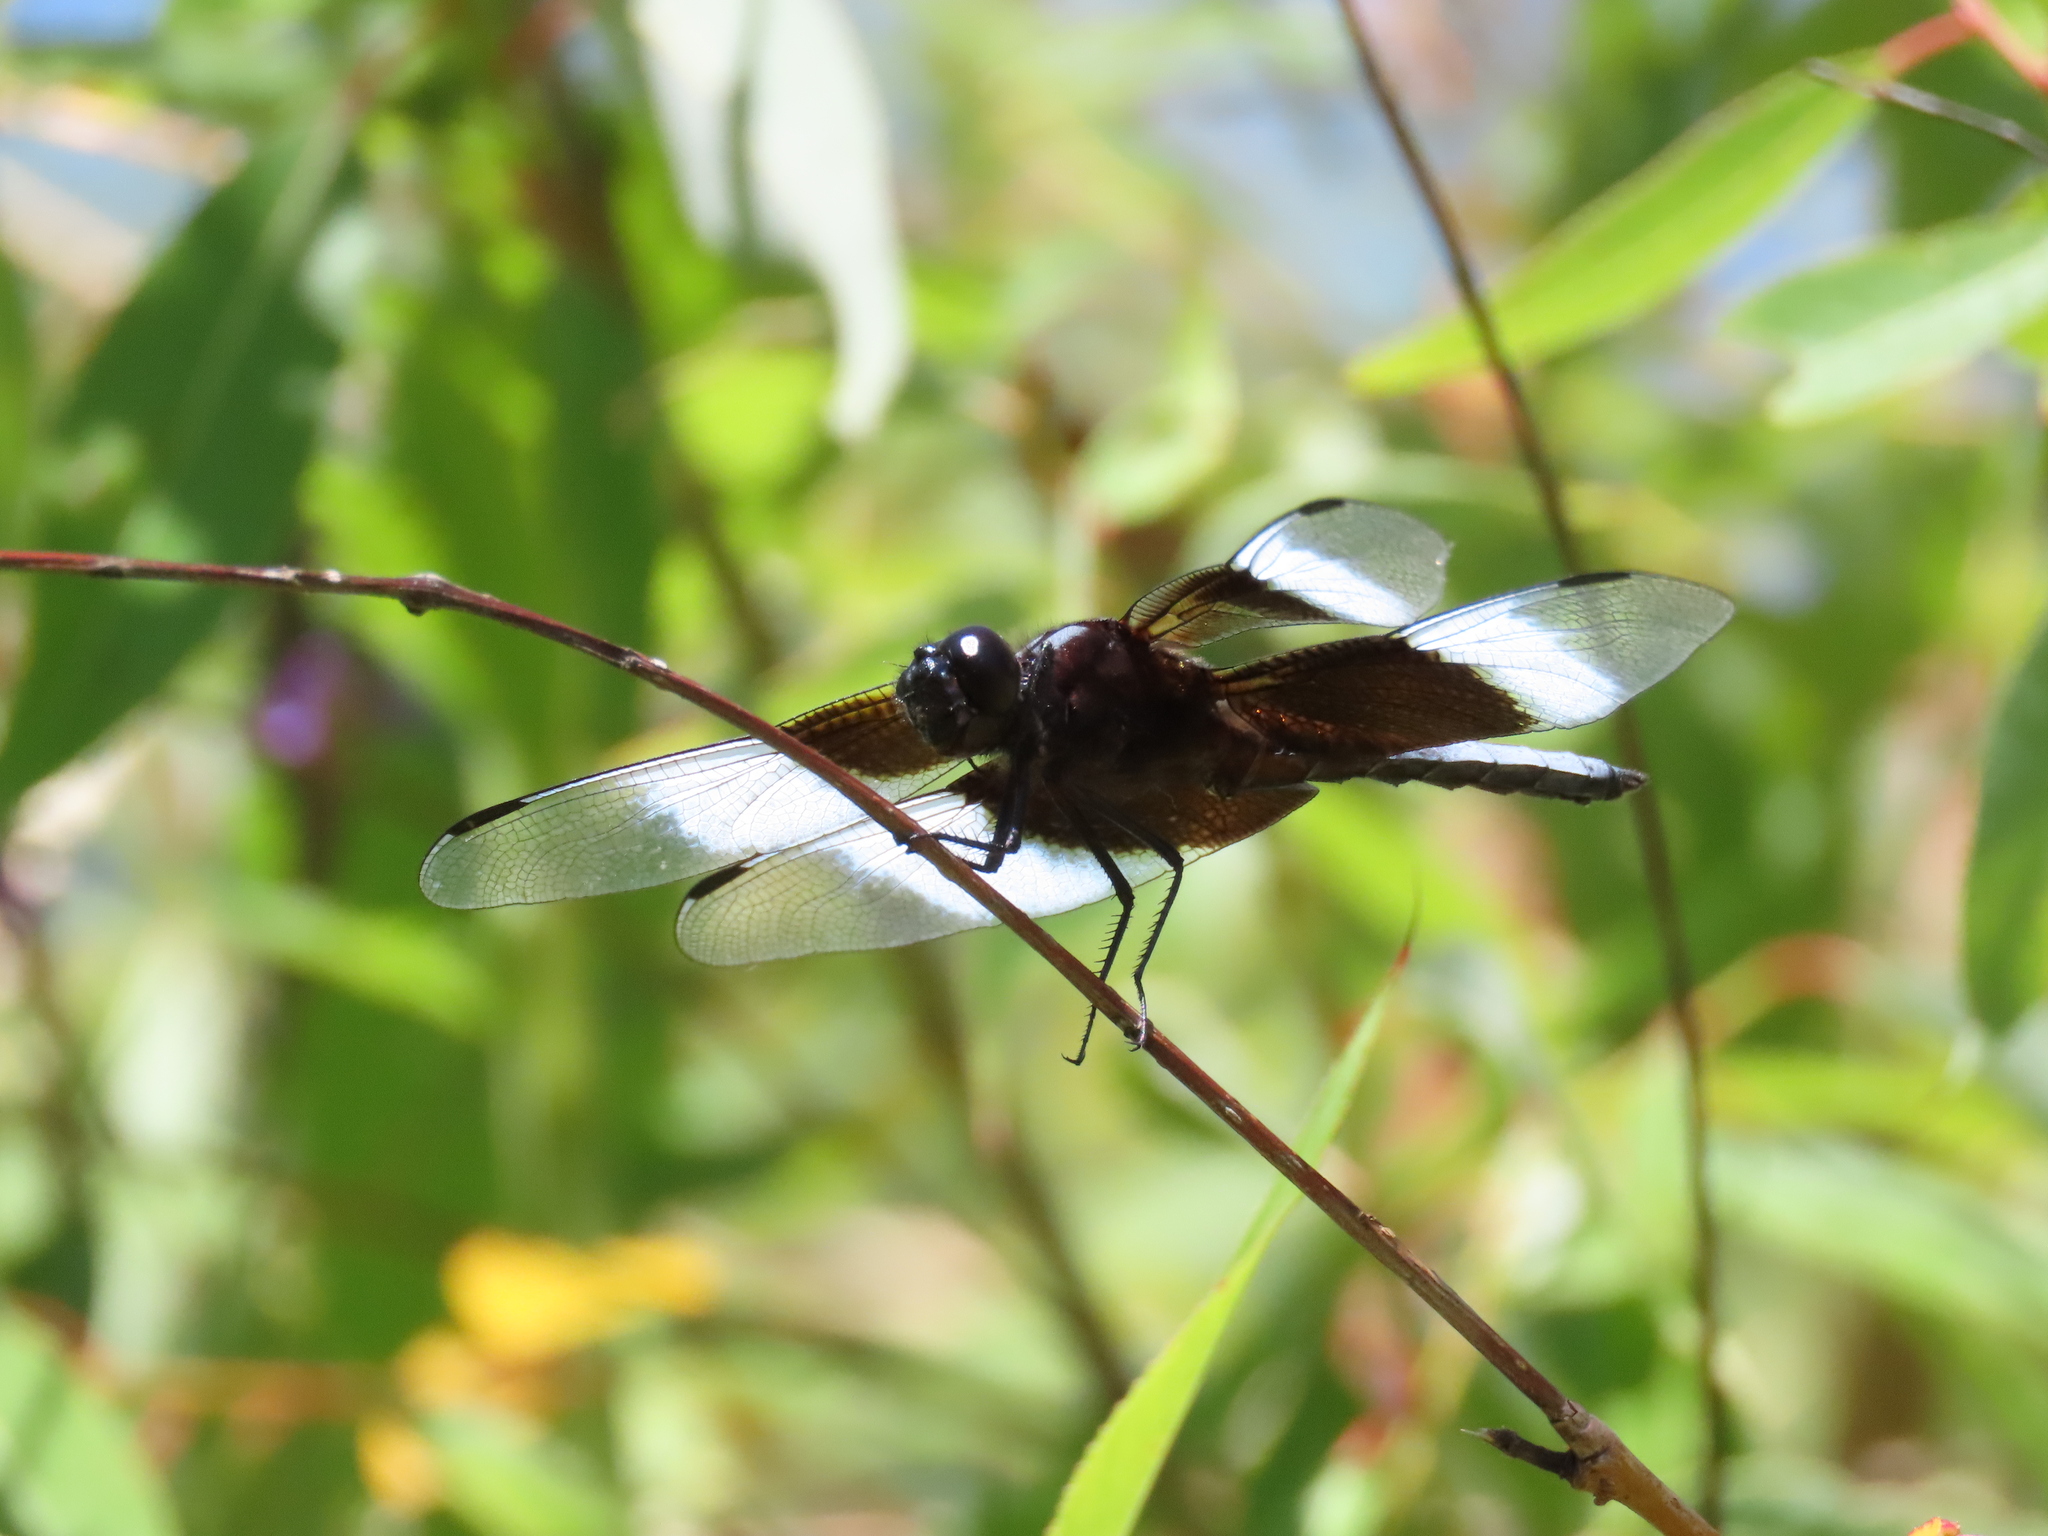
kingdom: Animalia
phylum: Arthropoda
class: Insecta
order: Odonata
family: Libellulidae
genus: Libellula
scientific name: Libellula luctuosa
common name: Widow skimmer
